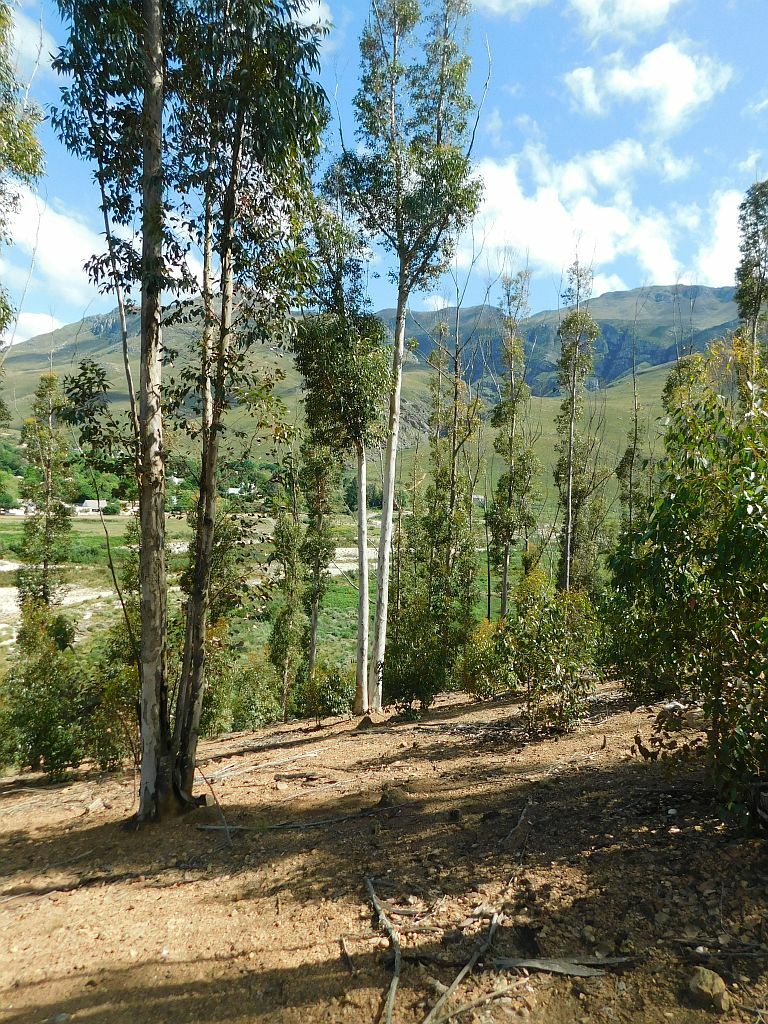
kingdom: Plantae
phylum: Tracheophyta
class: Magnoliopsida
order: Myrtales
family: Myrtaceae
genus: Eucalyptus
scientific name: Eucalyptus cladocalyx
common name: Sugargum
